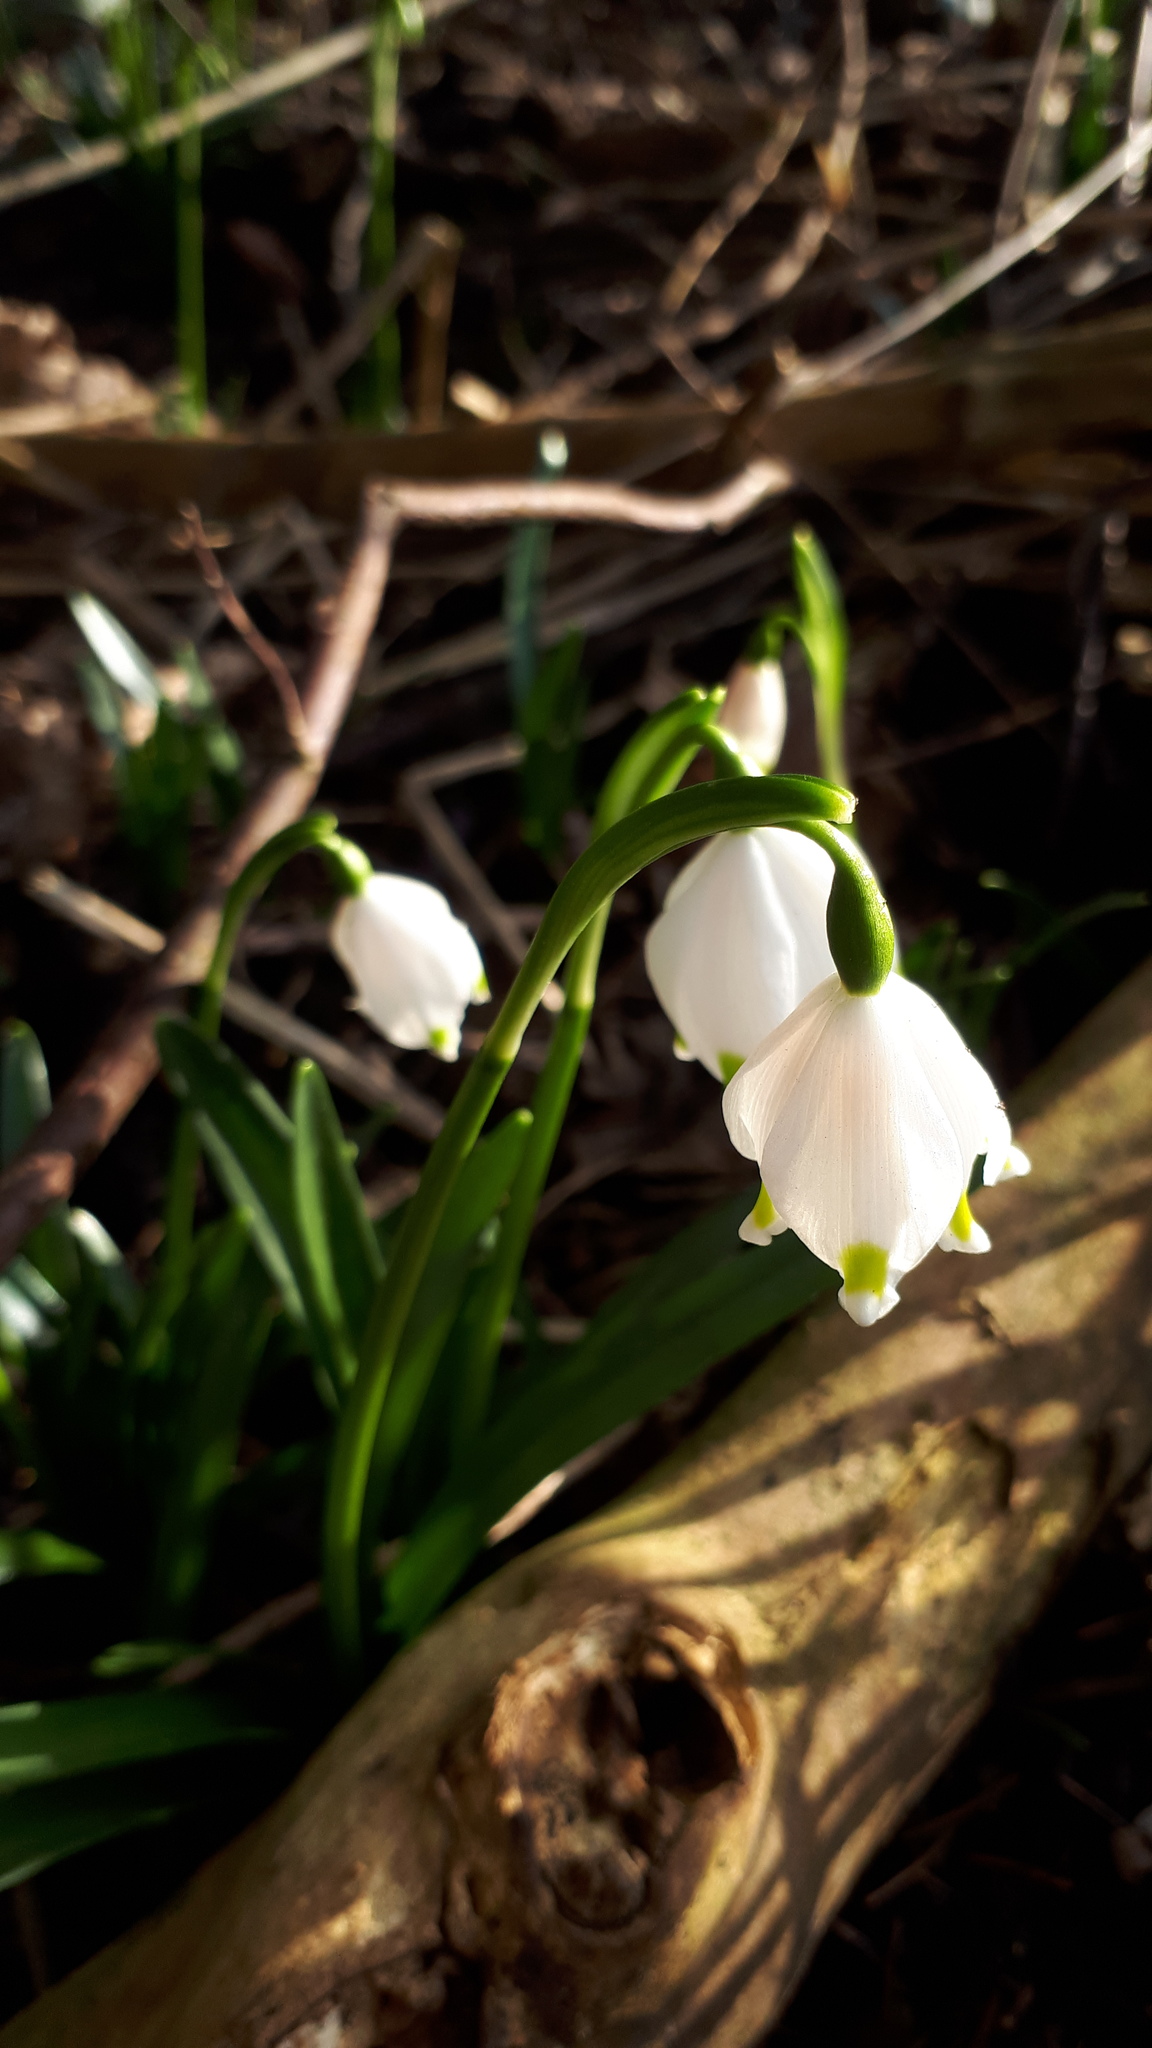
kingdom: Plantae
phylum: Tracheophyta
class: Liliopsida
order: Asparagales
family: Amaryllidaceae
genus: Leucojum
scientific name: Leucojum vernum
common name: Spring snowflake
